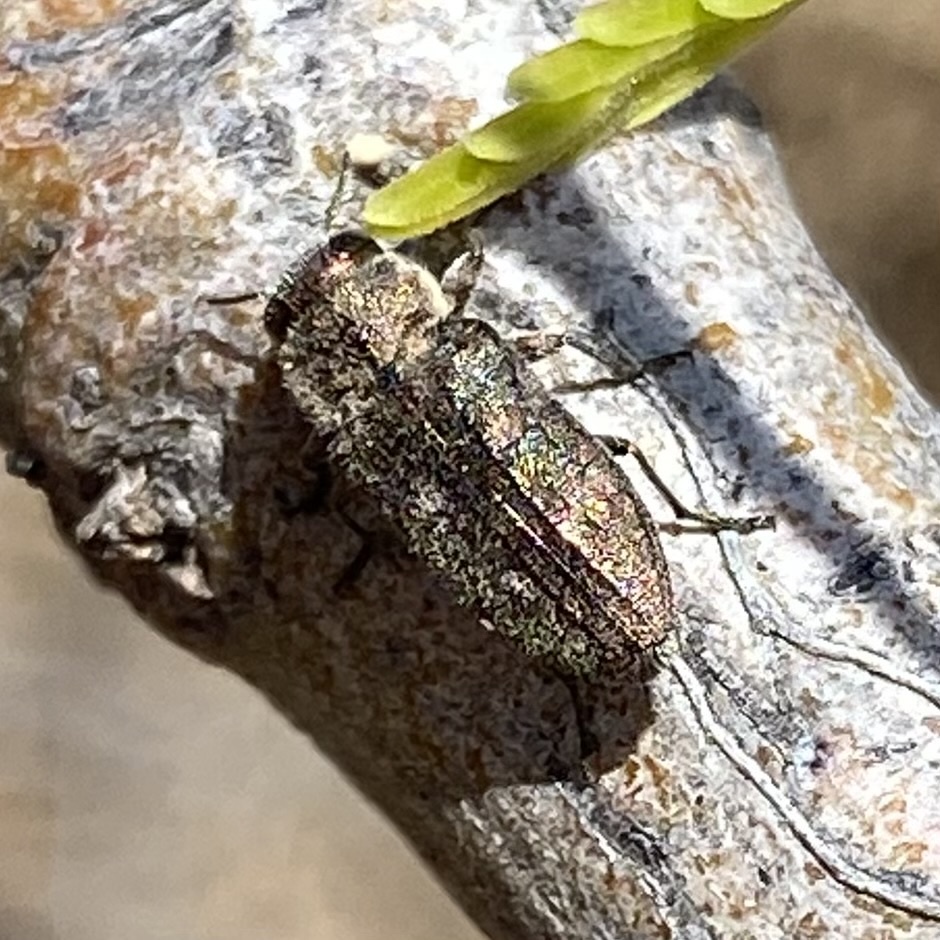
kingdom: Animalia
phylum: Arthropoda
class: Insecta
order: Coleoptera
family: Buprestidae
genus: Chrysobothris
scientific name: Chrysobothris
